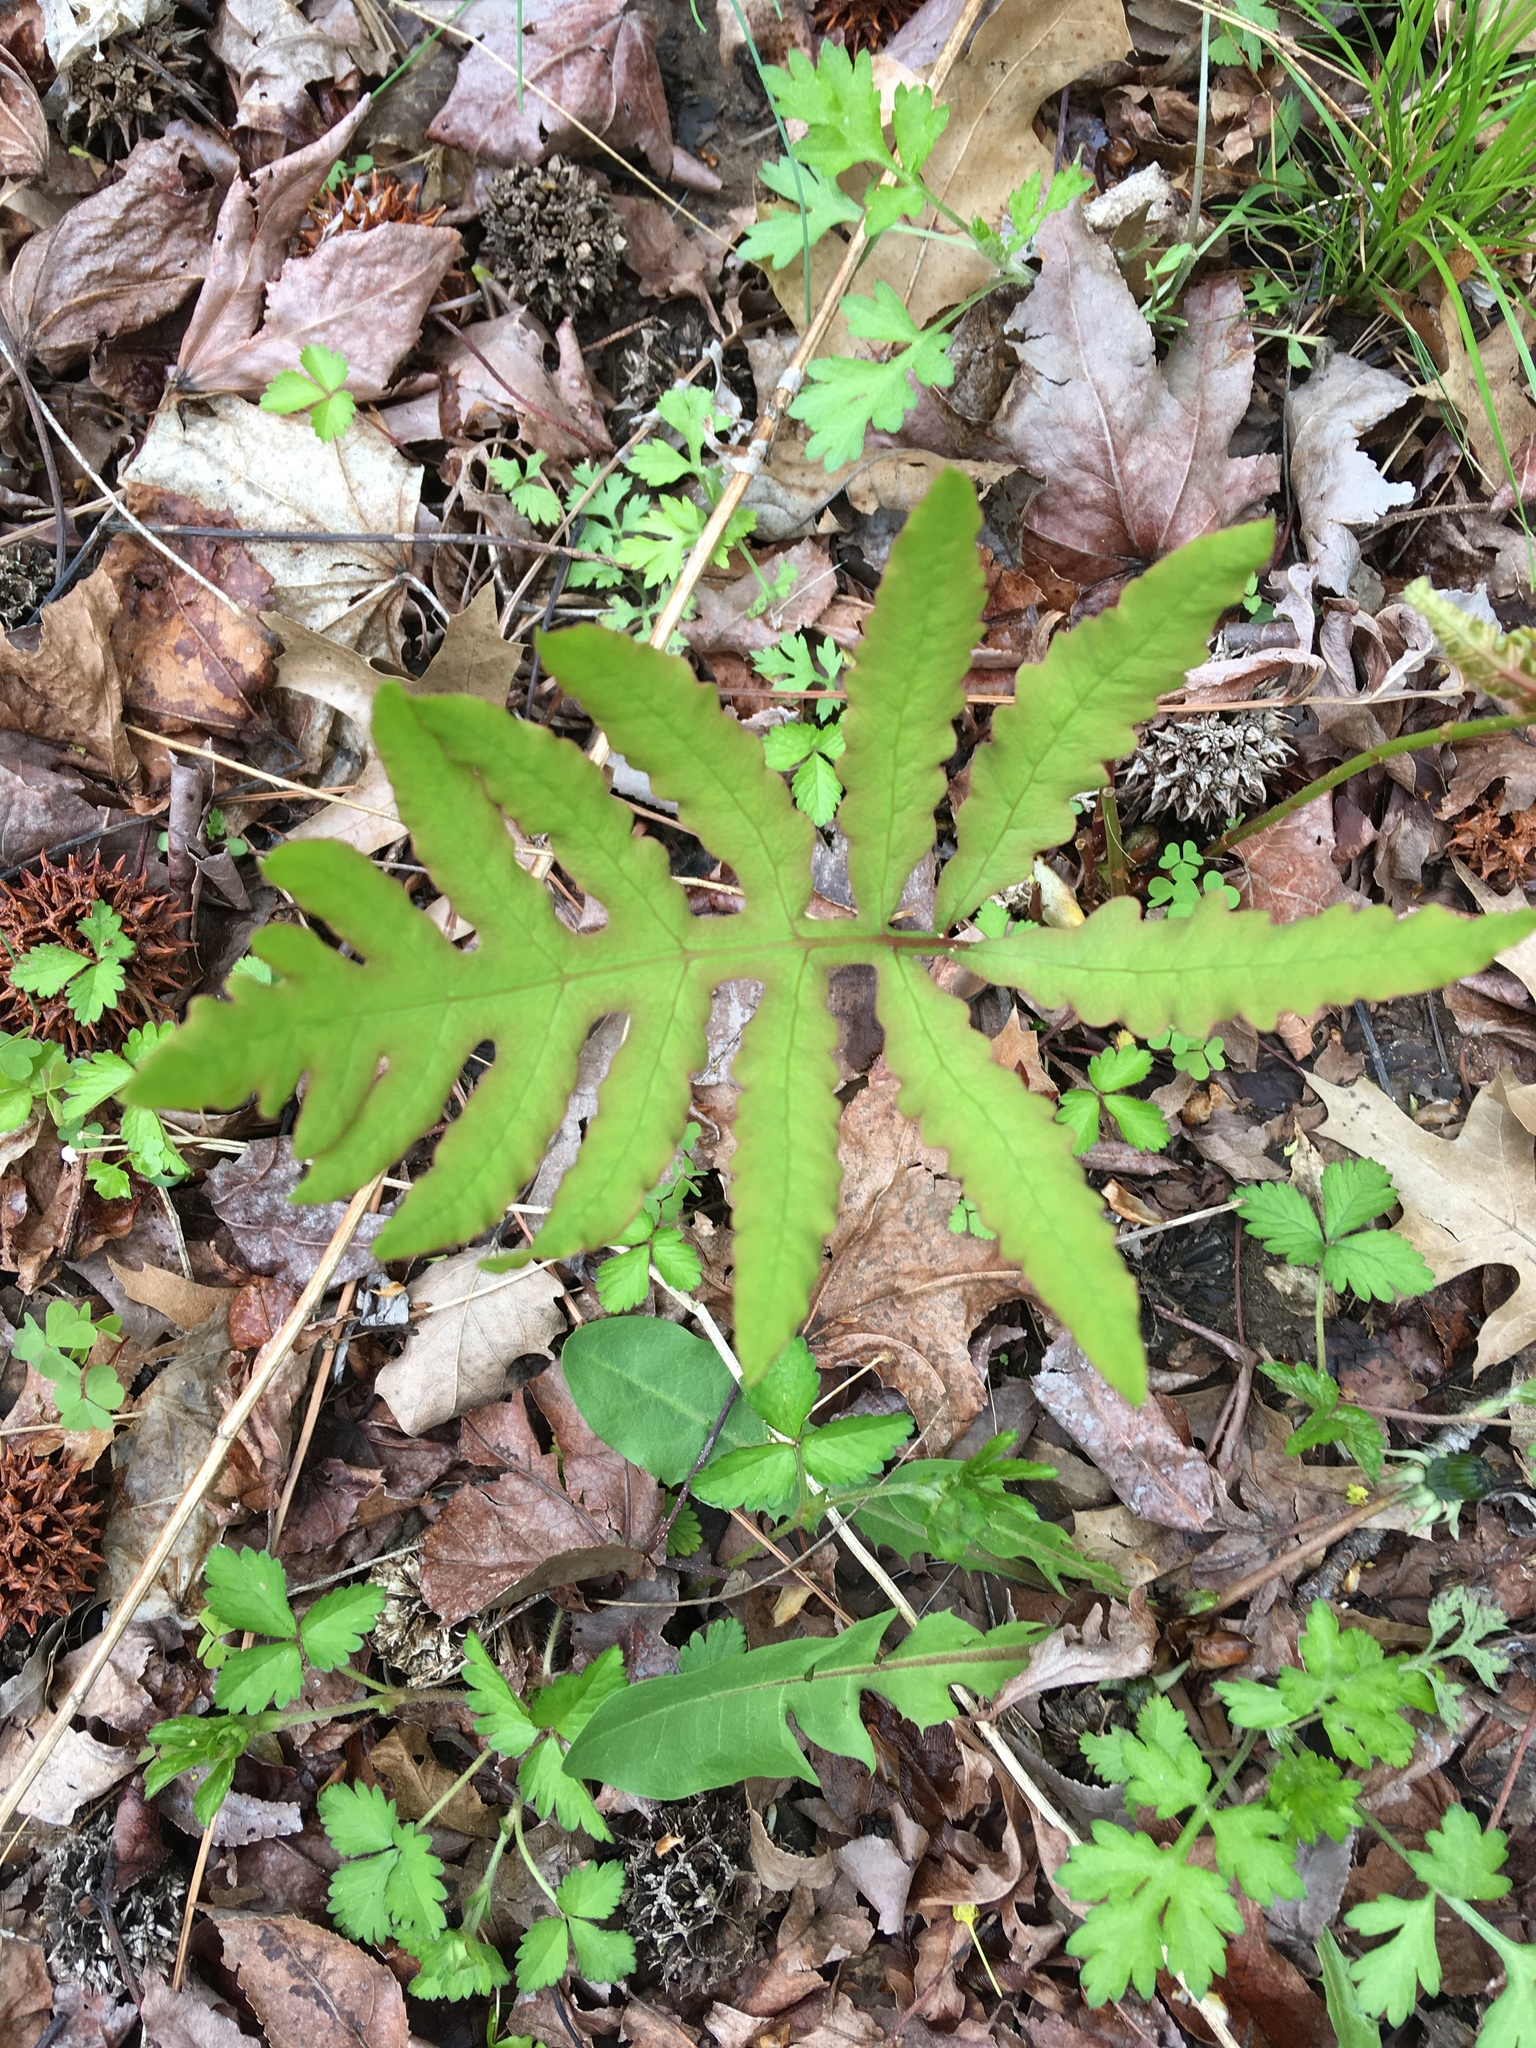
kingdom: Plantae
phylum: Tracheophyta
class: Polypodiopsida
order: Polypodiales
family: Onocleaceae
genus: Onoclea
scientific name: Onoclea sensibilis
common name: Sensitive fern
